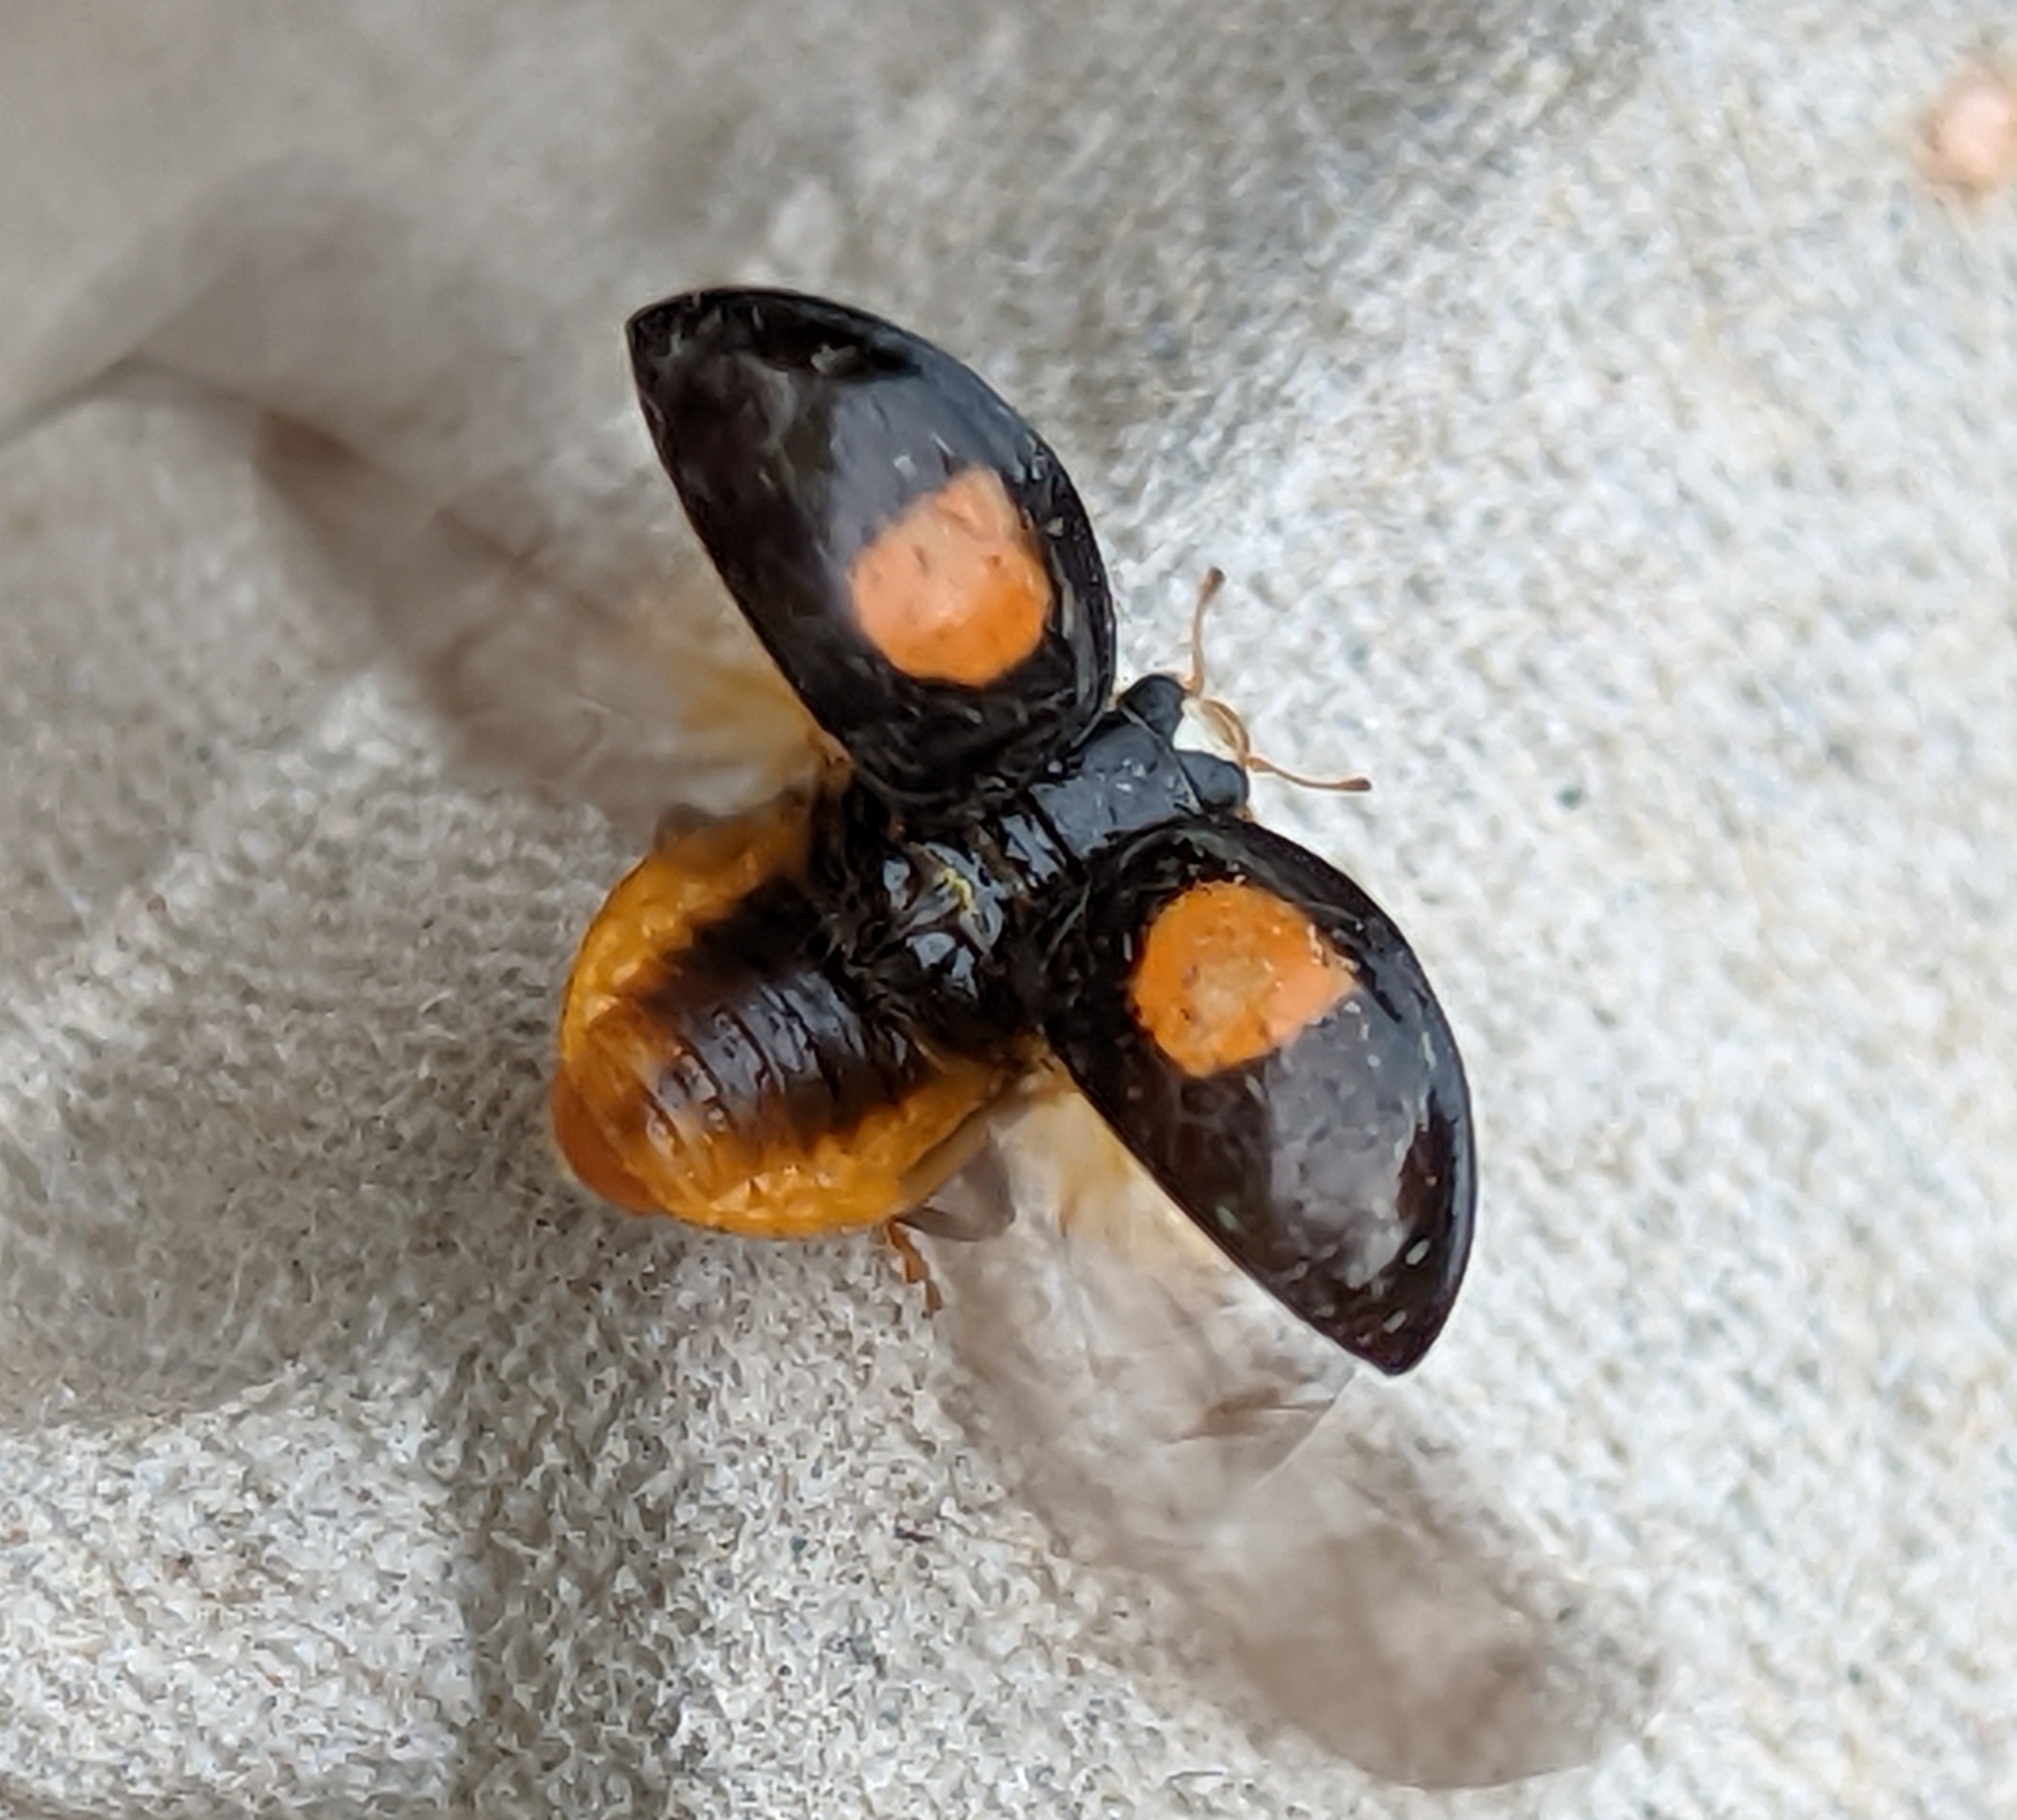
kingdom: Animalia
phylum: Arthropoda
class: Insecta
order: Coleoptera
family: Coccinellidae
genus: Harmonia
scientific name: Harmonia axyridis
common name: Harlequin ladybird
